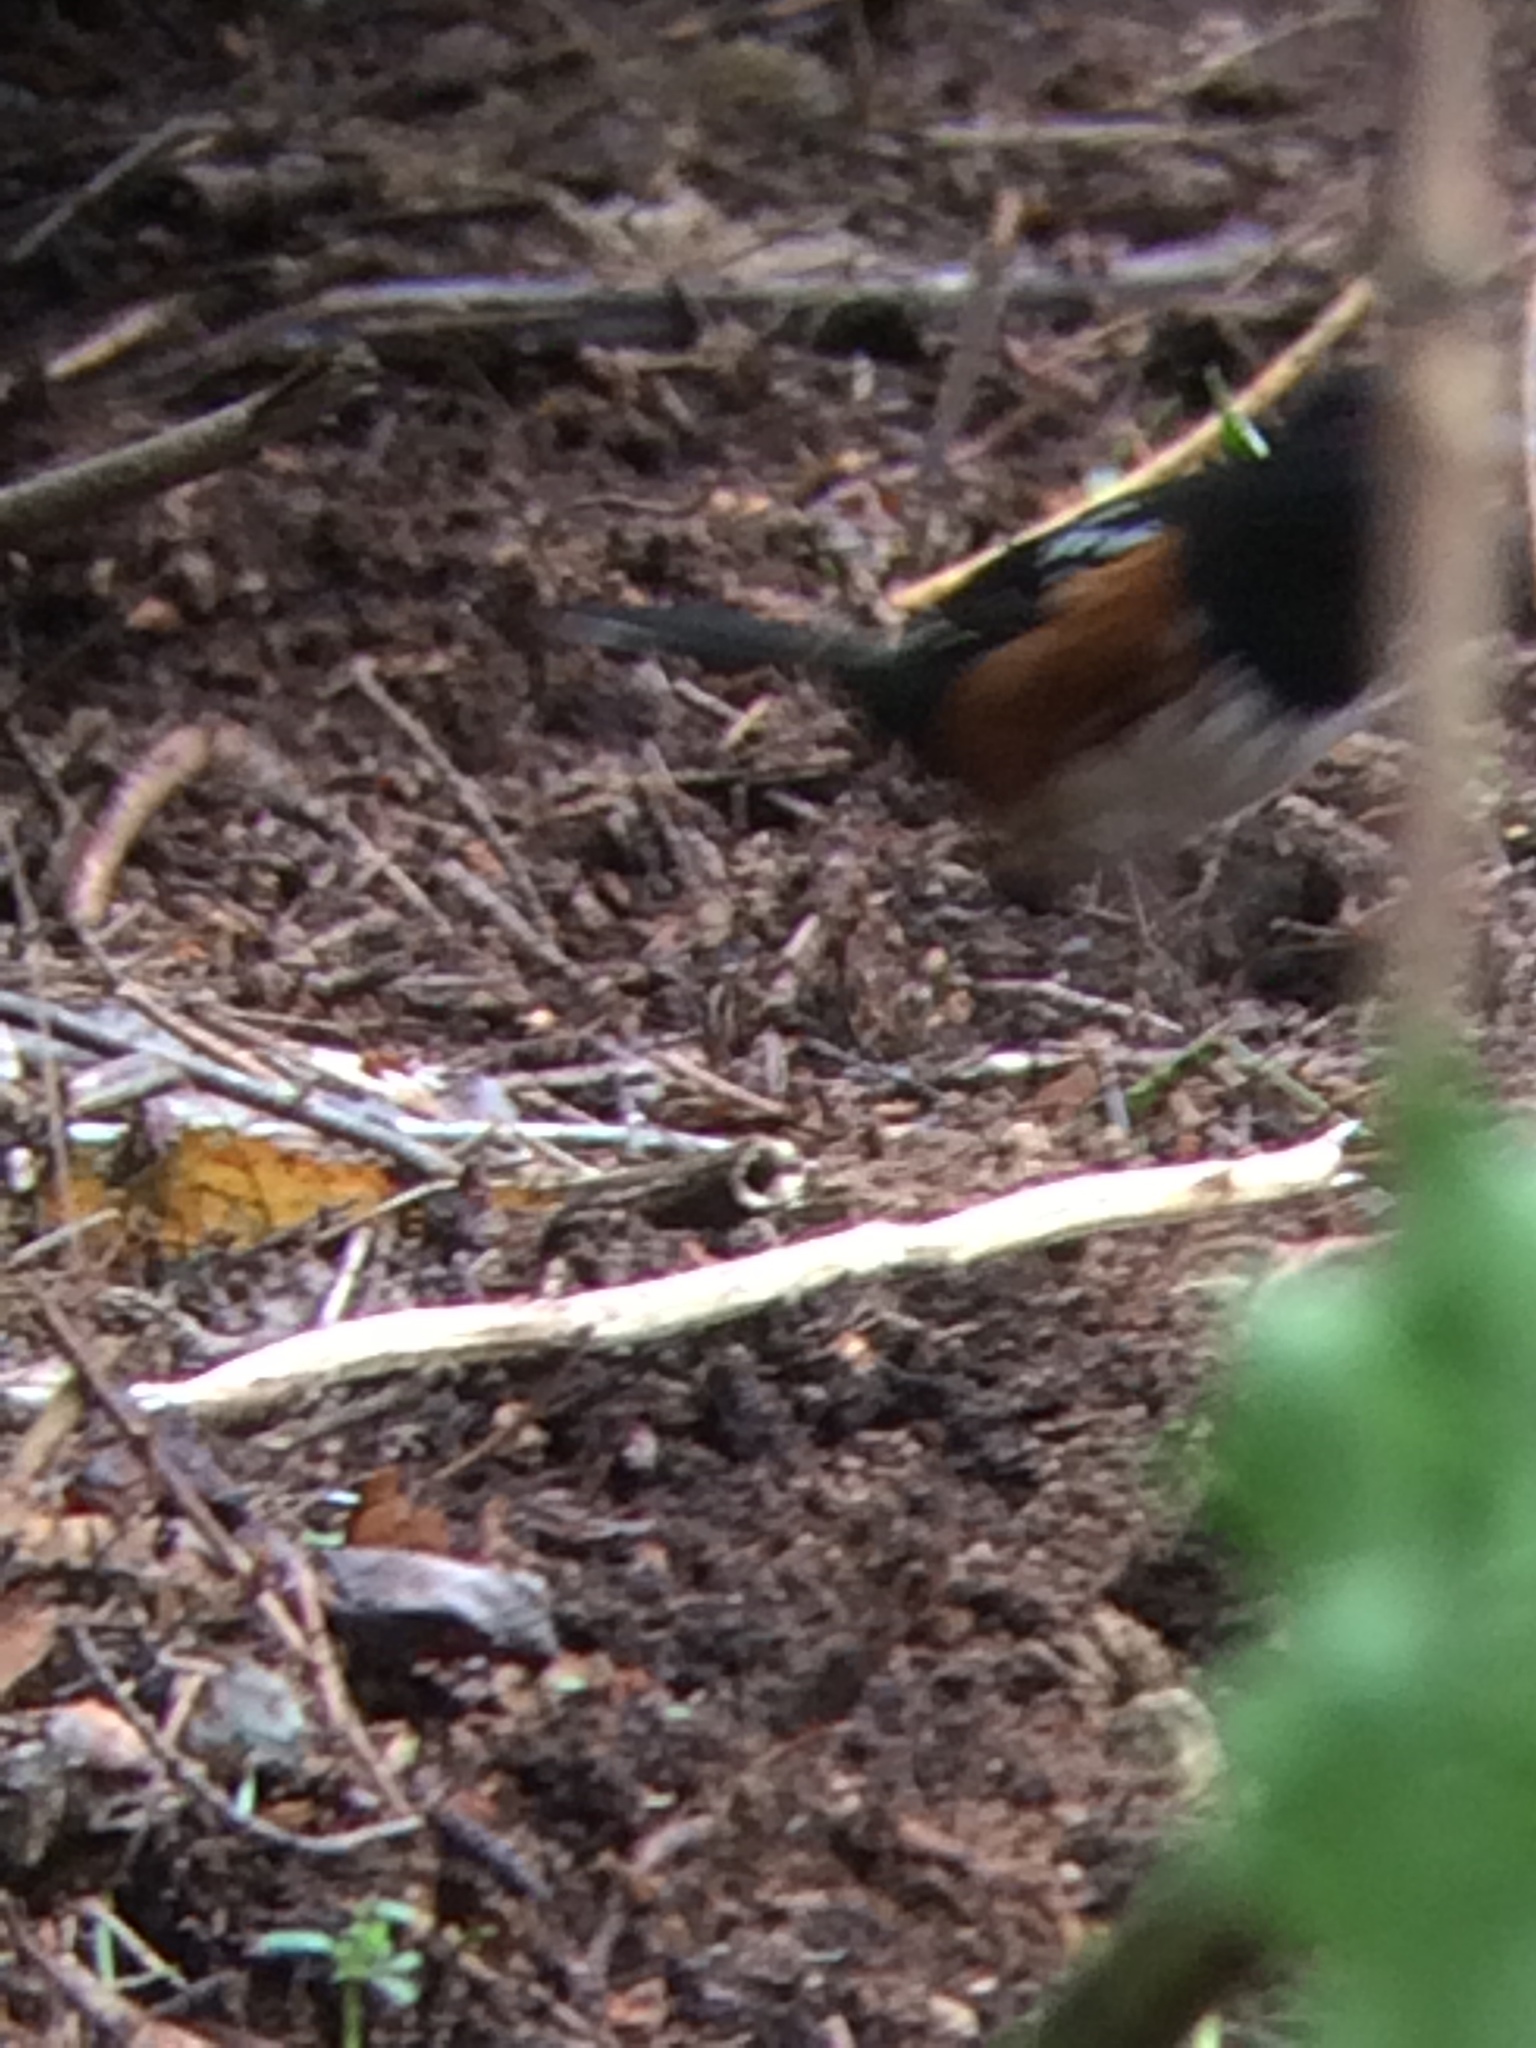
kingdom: Animalia
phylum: Chordata
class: Aves
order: Passeriformes
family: Passerellidae
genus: Pipilo
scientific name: Pipilo maculatus
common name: Spotted towhee
